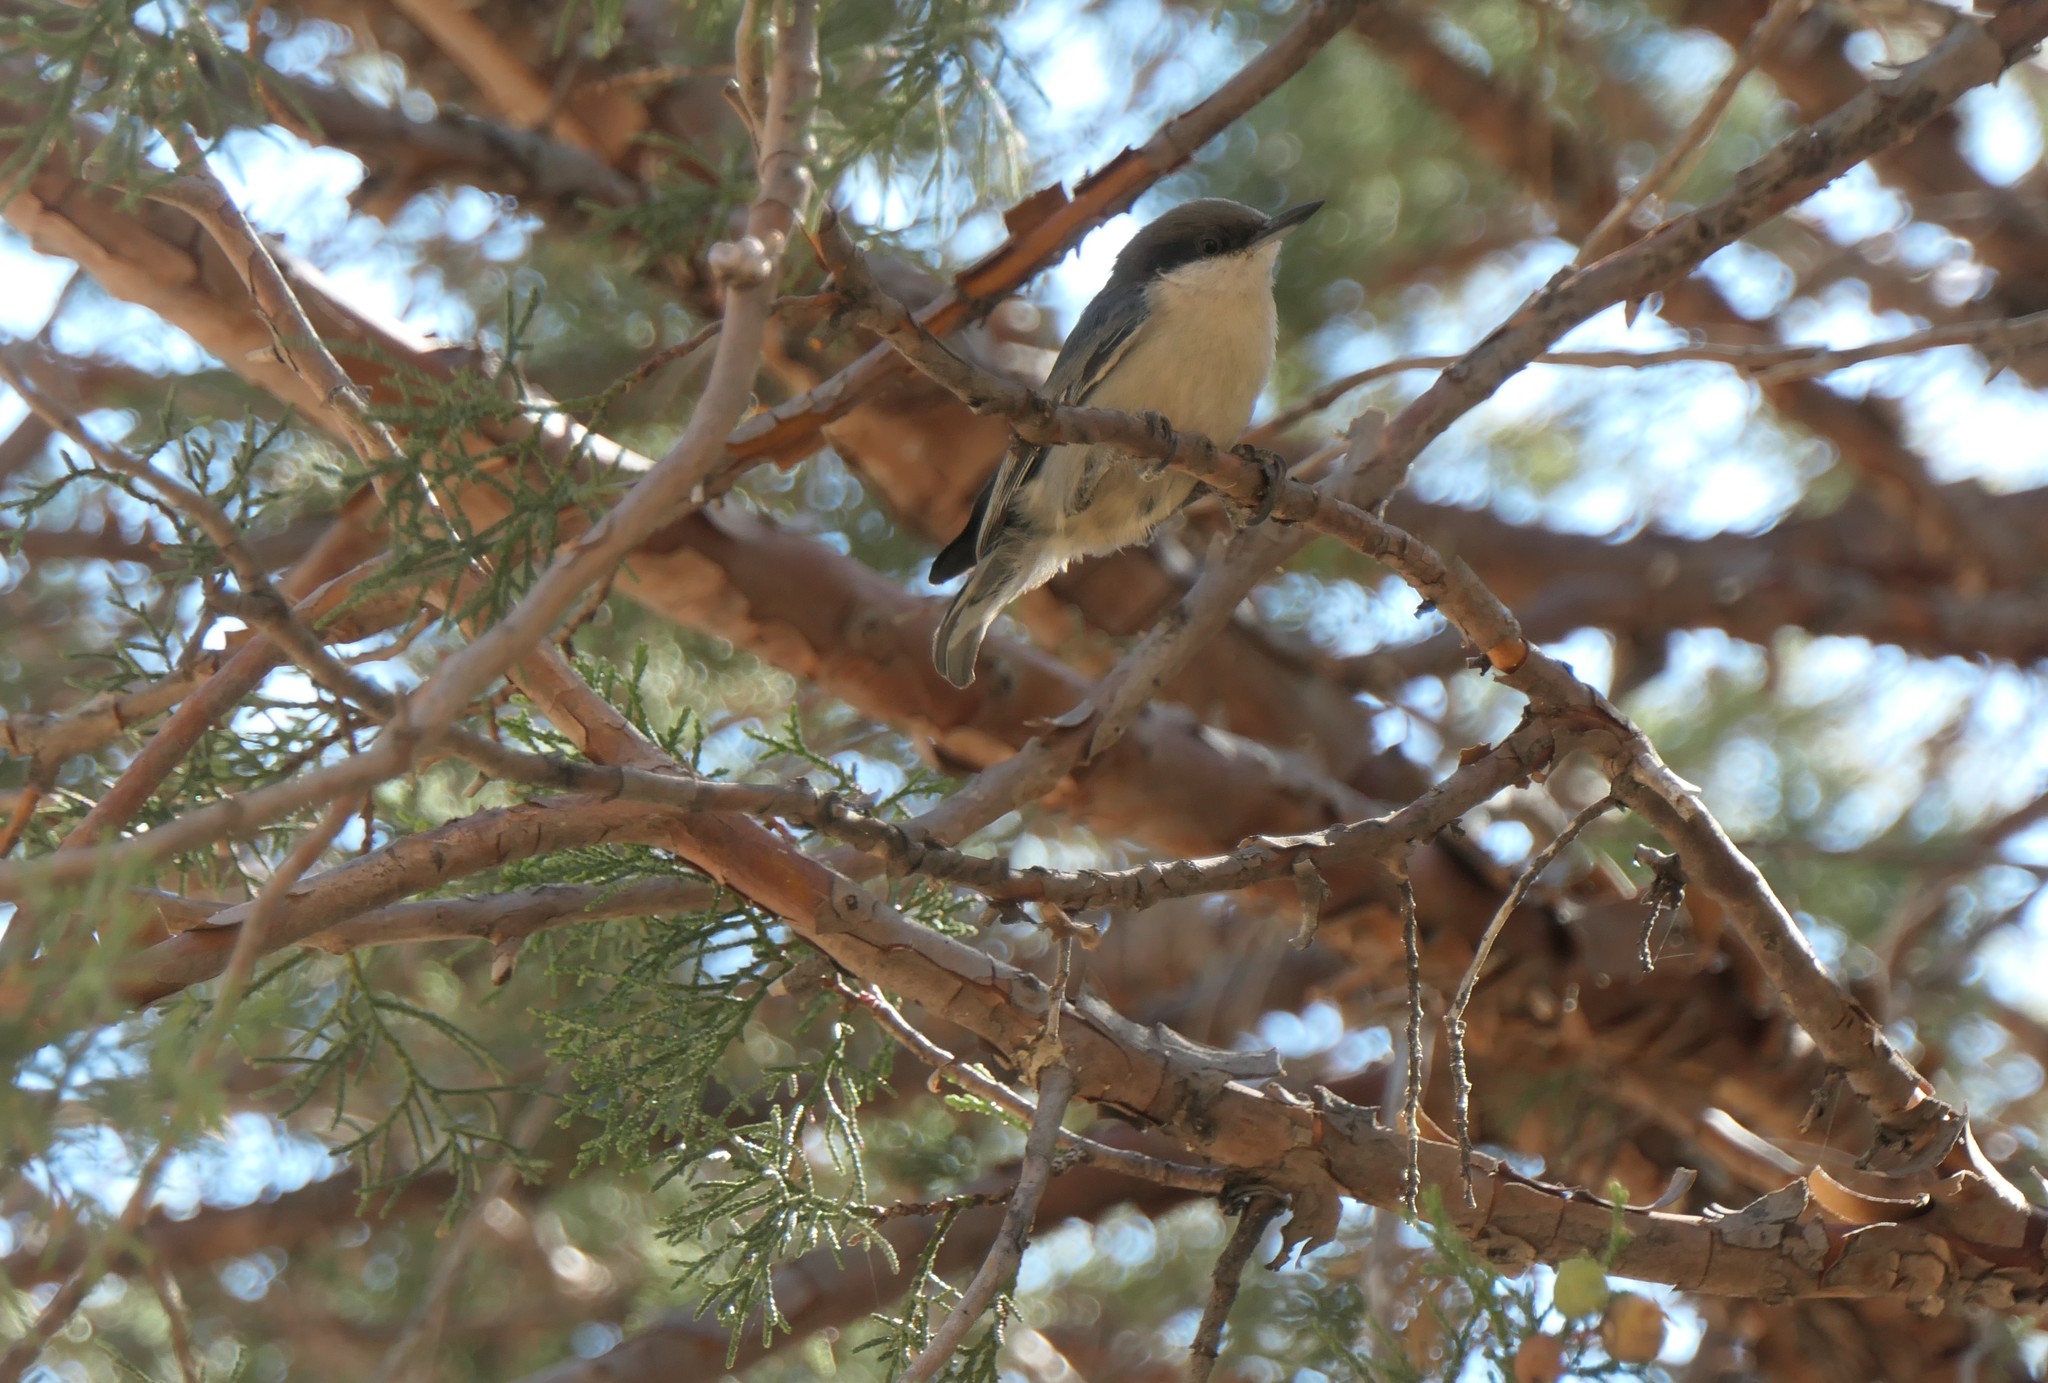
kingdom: Animalia
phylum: Chordata
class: Aves
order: Passeriformes
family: Sittidae
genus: Sitta
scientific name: Sitta pygmaea
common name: Pygmy nuthatch
